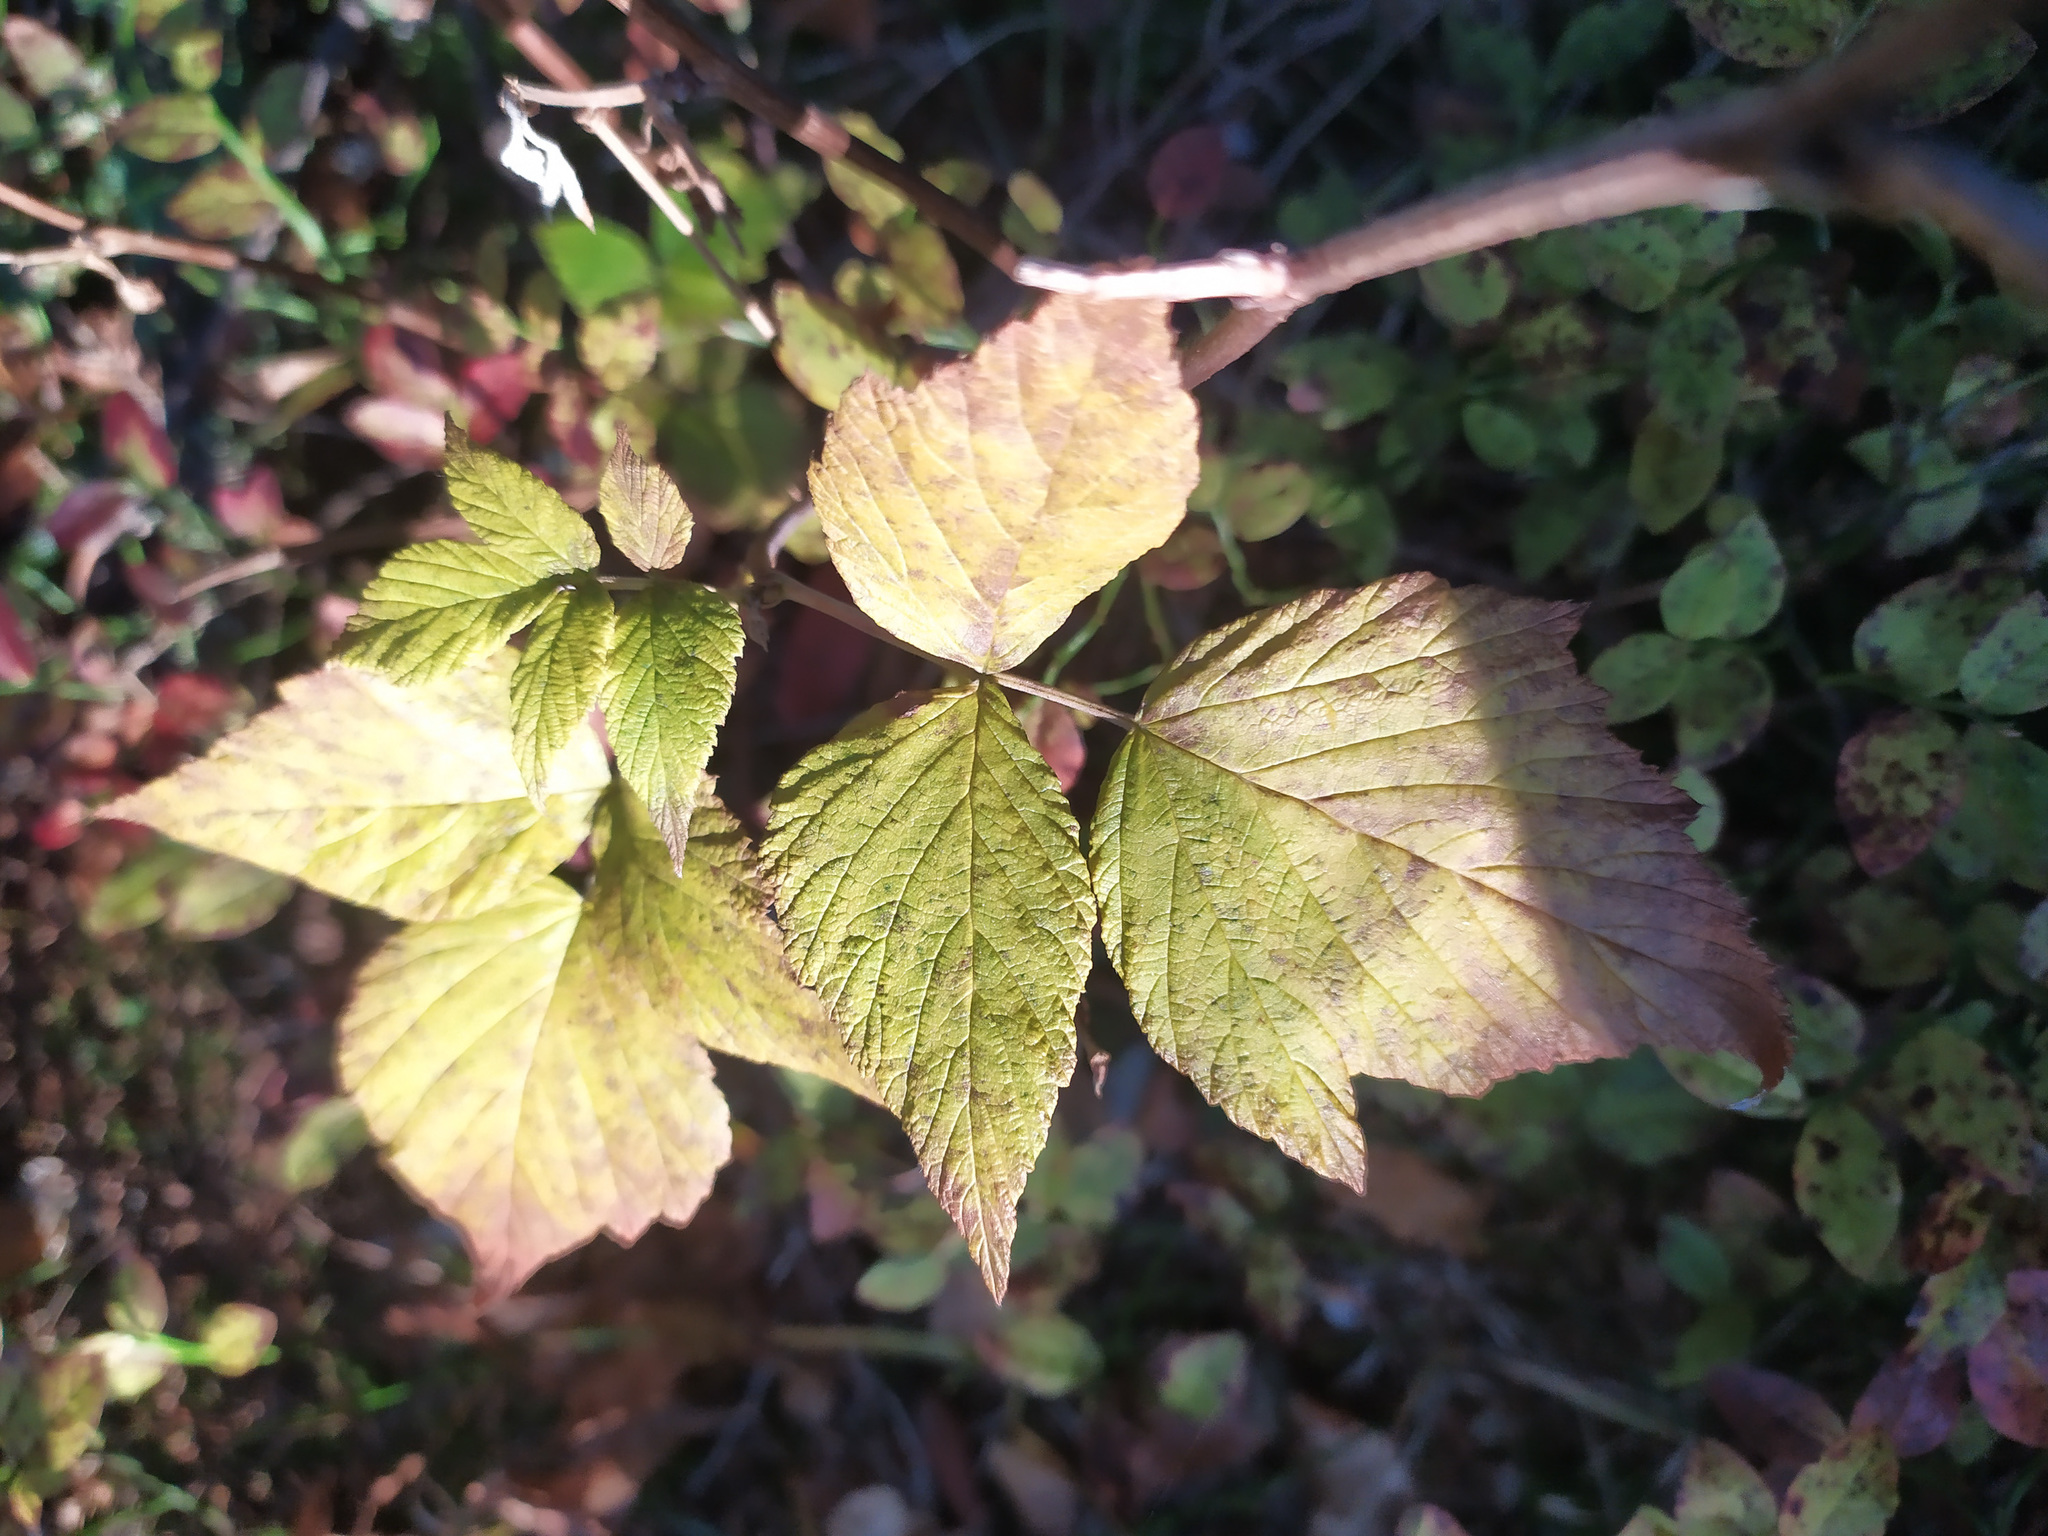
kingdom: Plantae
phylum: Tracheophyta
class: Magnoliopsida
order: Rosales
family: Rosaceae
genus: Rubus
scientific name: Rubus idaeus
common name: Raspberry
